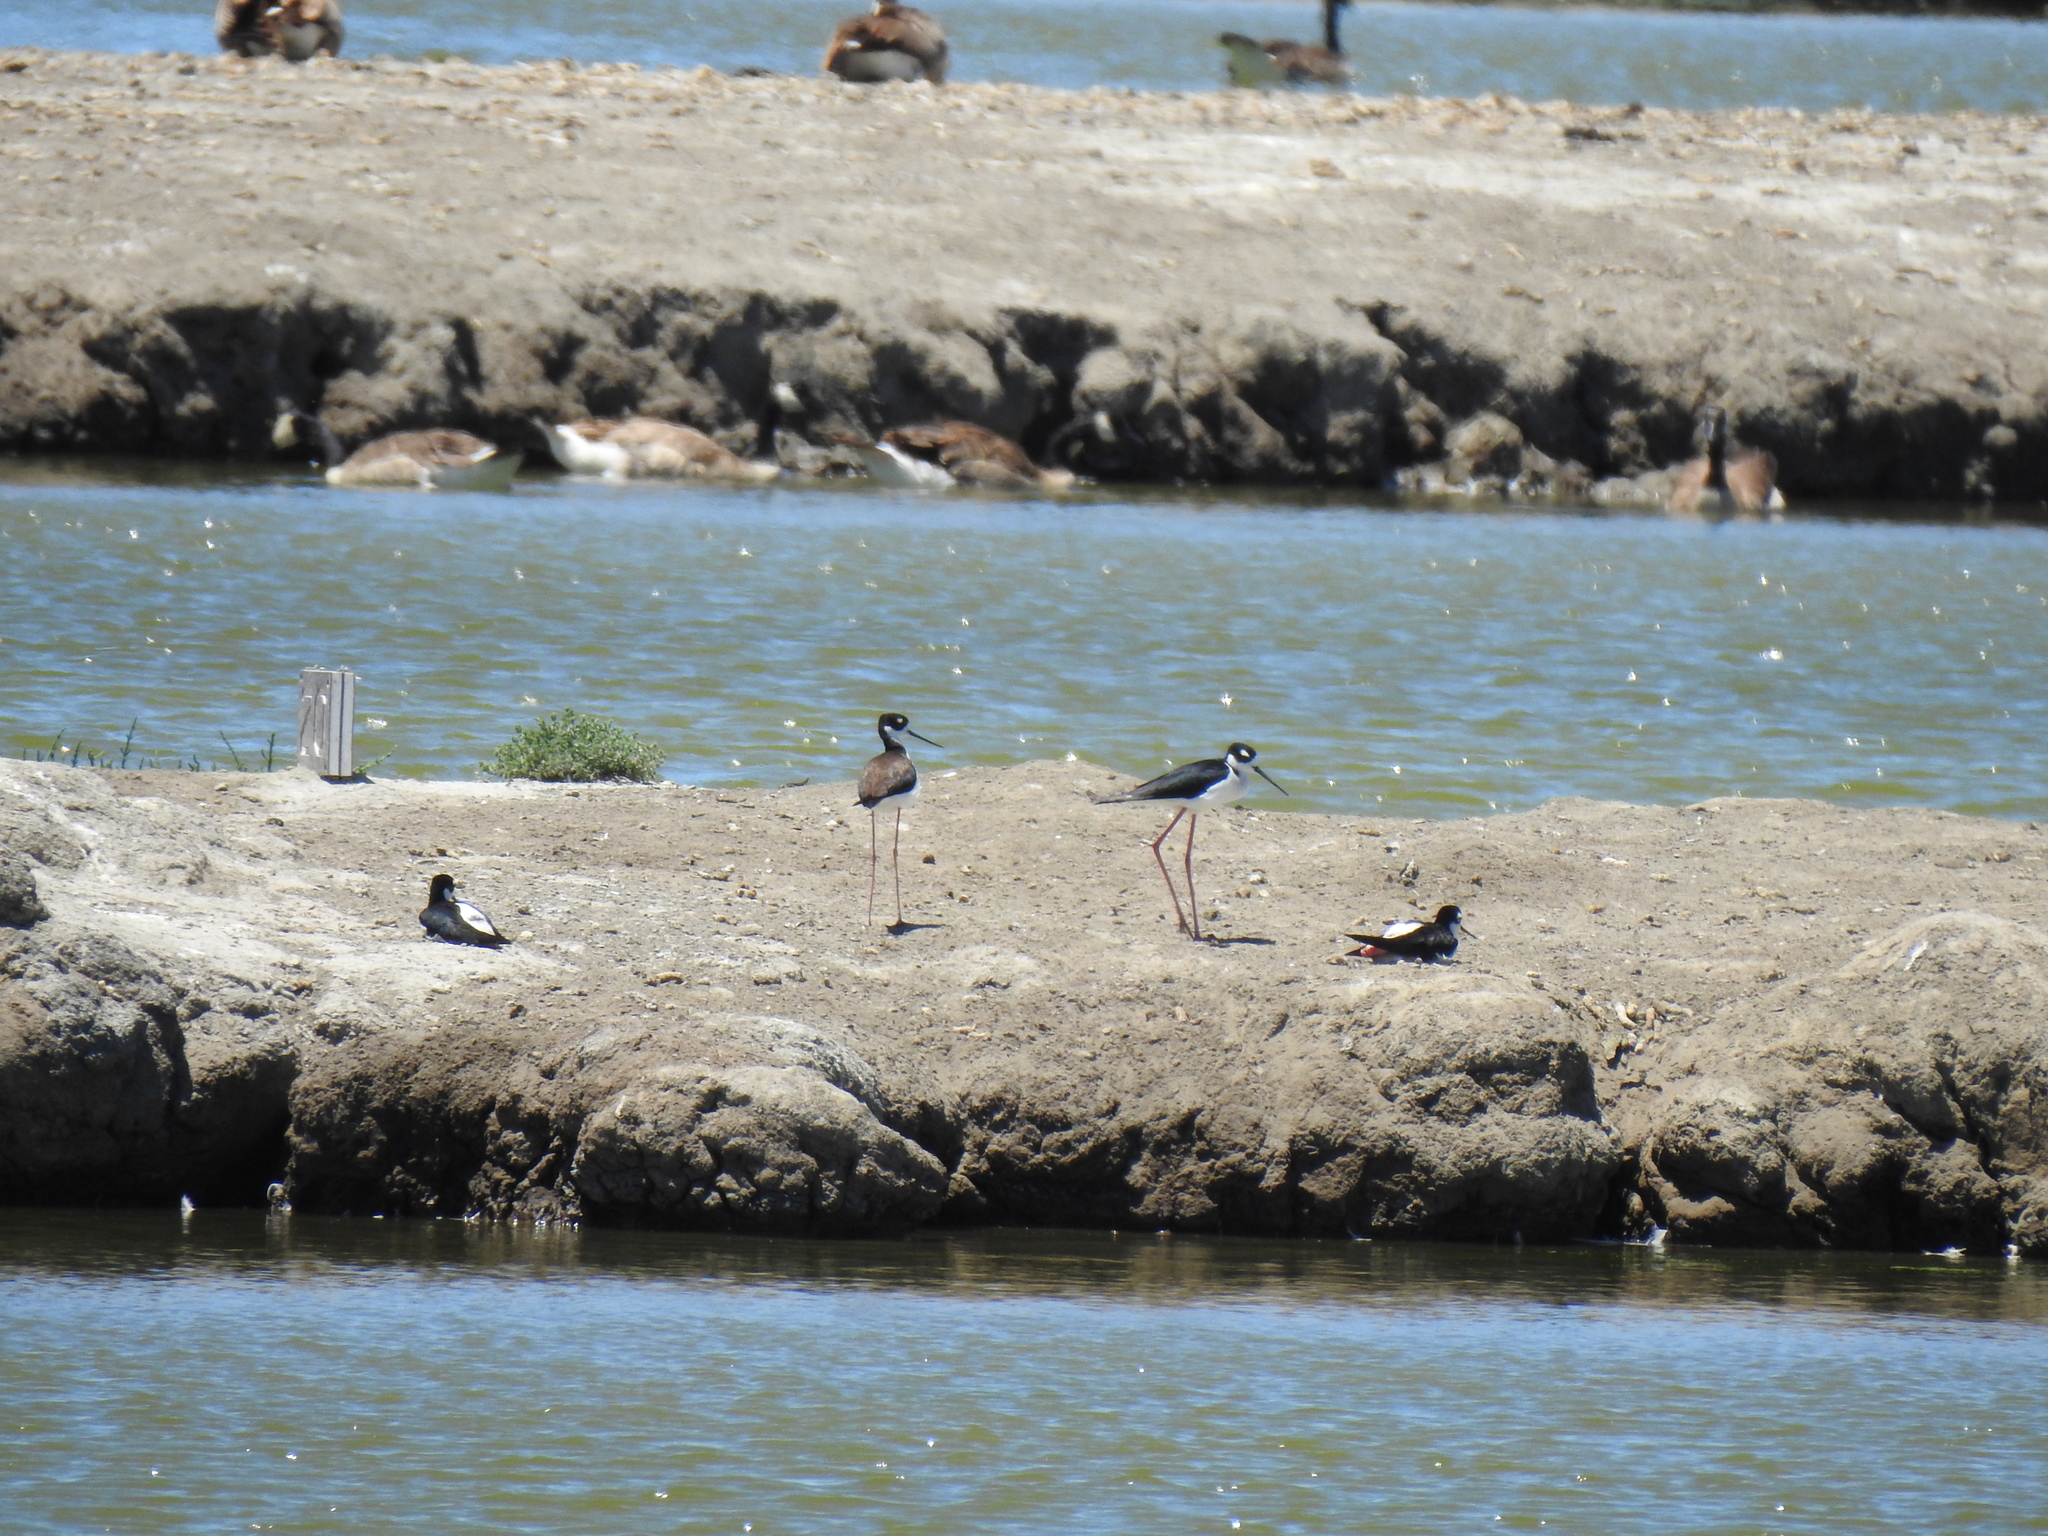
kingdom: Animalia
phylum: Chordata
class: Aves
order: Charadriiformes
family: Recurvirostridae
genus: Himantopus
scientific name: Himantopus mexicanus
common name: Black-necked stilt
